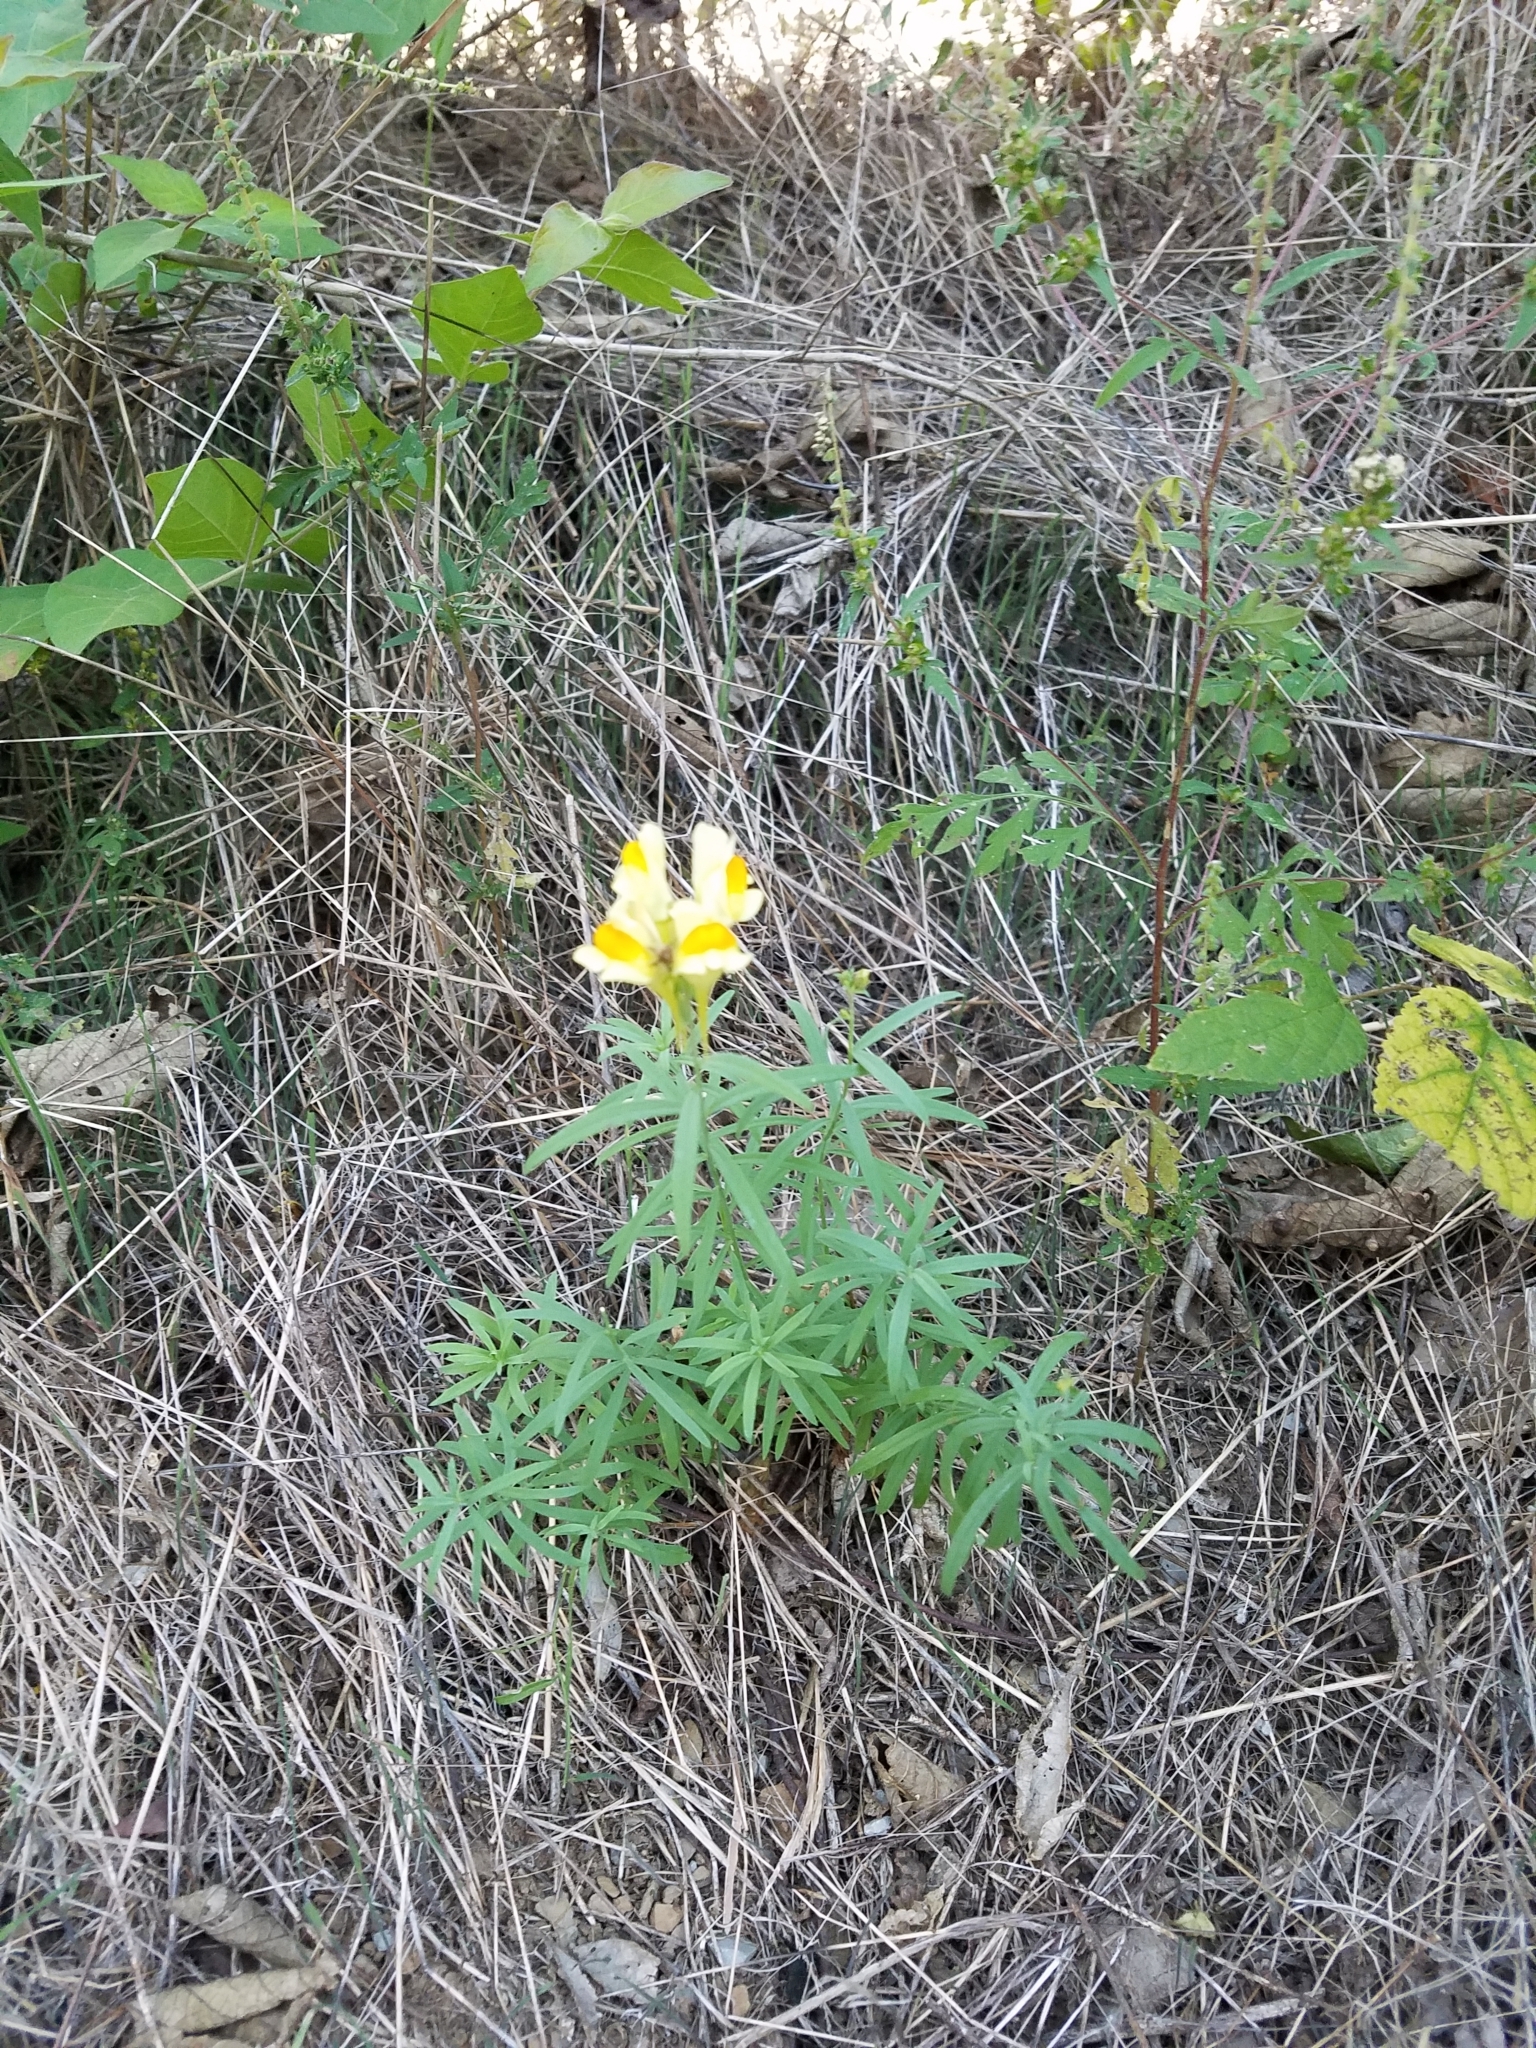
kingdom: Plantae
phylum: Tracheophyta
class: Magnoliopsida
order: Lamiales
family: Plantaginaceae
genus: Linaria
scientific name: Linaria vulgaris
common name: Butter and eggs
